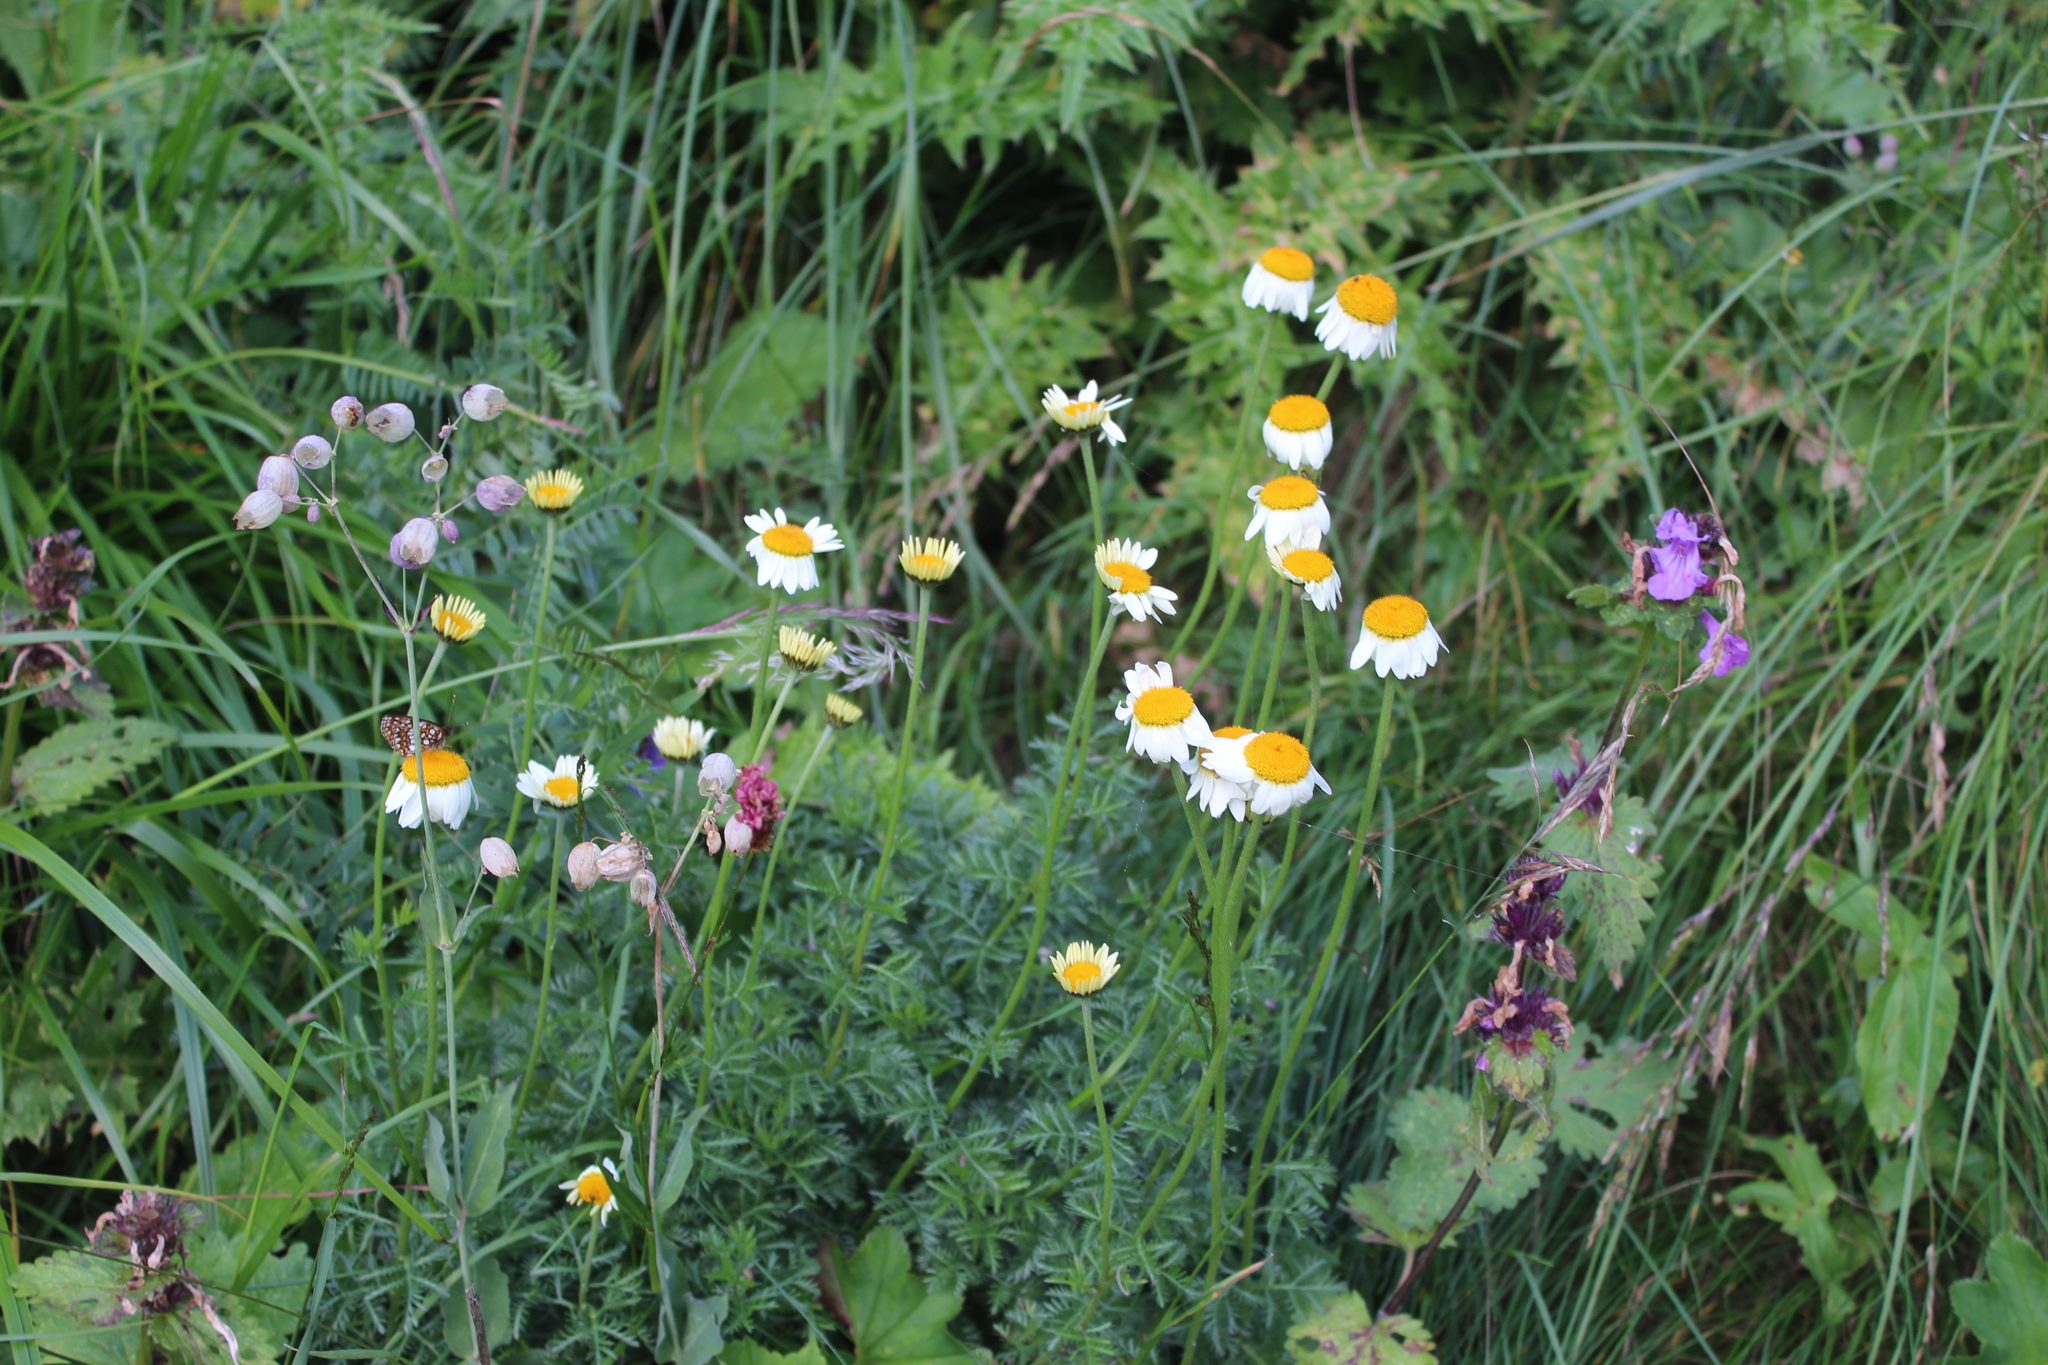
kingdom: Plantae
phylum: Tracheophyta
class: Magnoliopsida
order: Asterales
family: Asteraceae
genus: Cota
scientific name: Cota melanoloma
